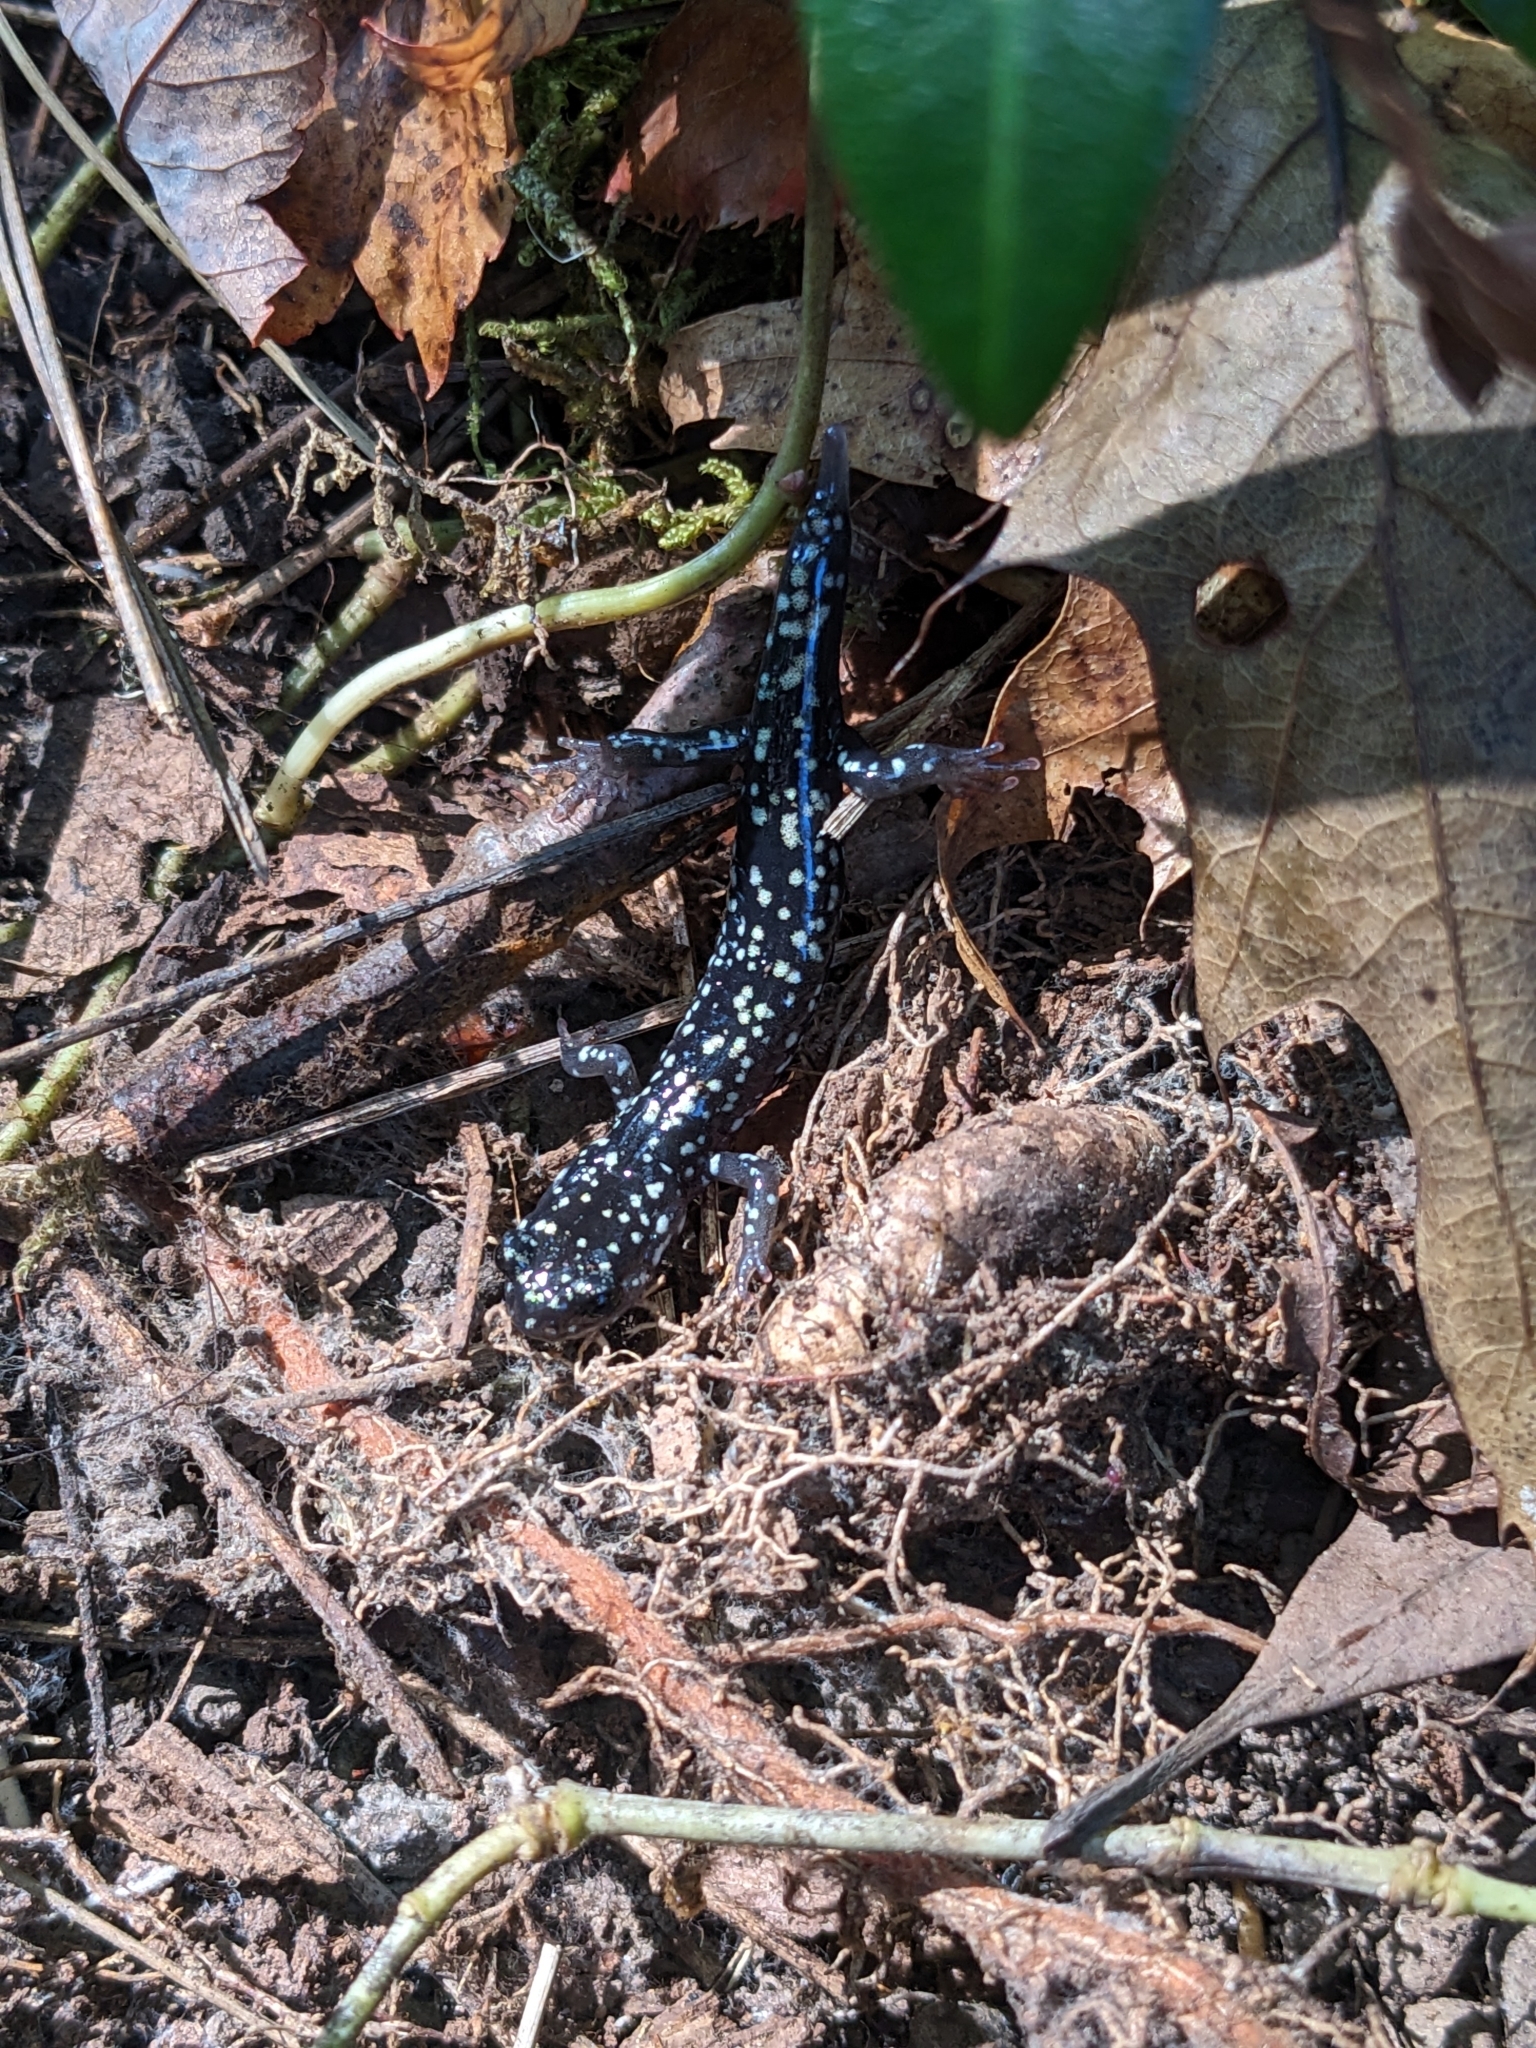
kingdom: Animalia
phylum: Chordata
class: Amphibia
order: Caudata
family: Plethodontidae
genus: Plethodon
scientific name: Plethodon glutinosus
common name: Northern slimy salamander
